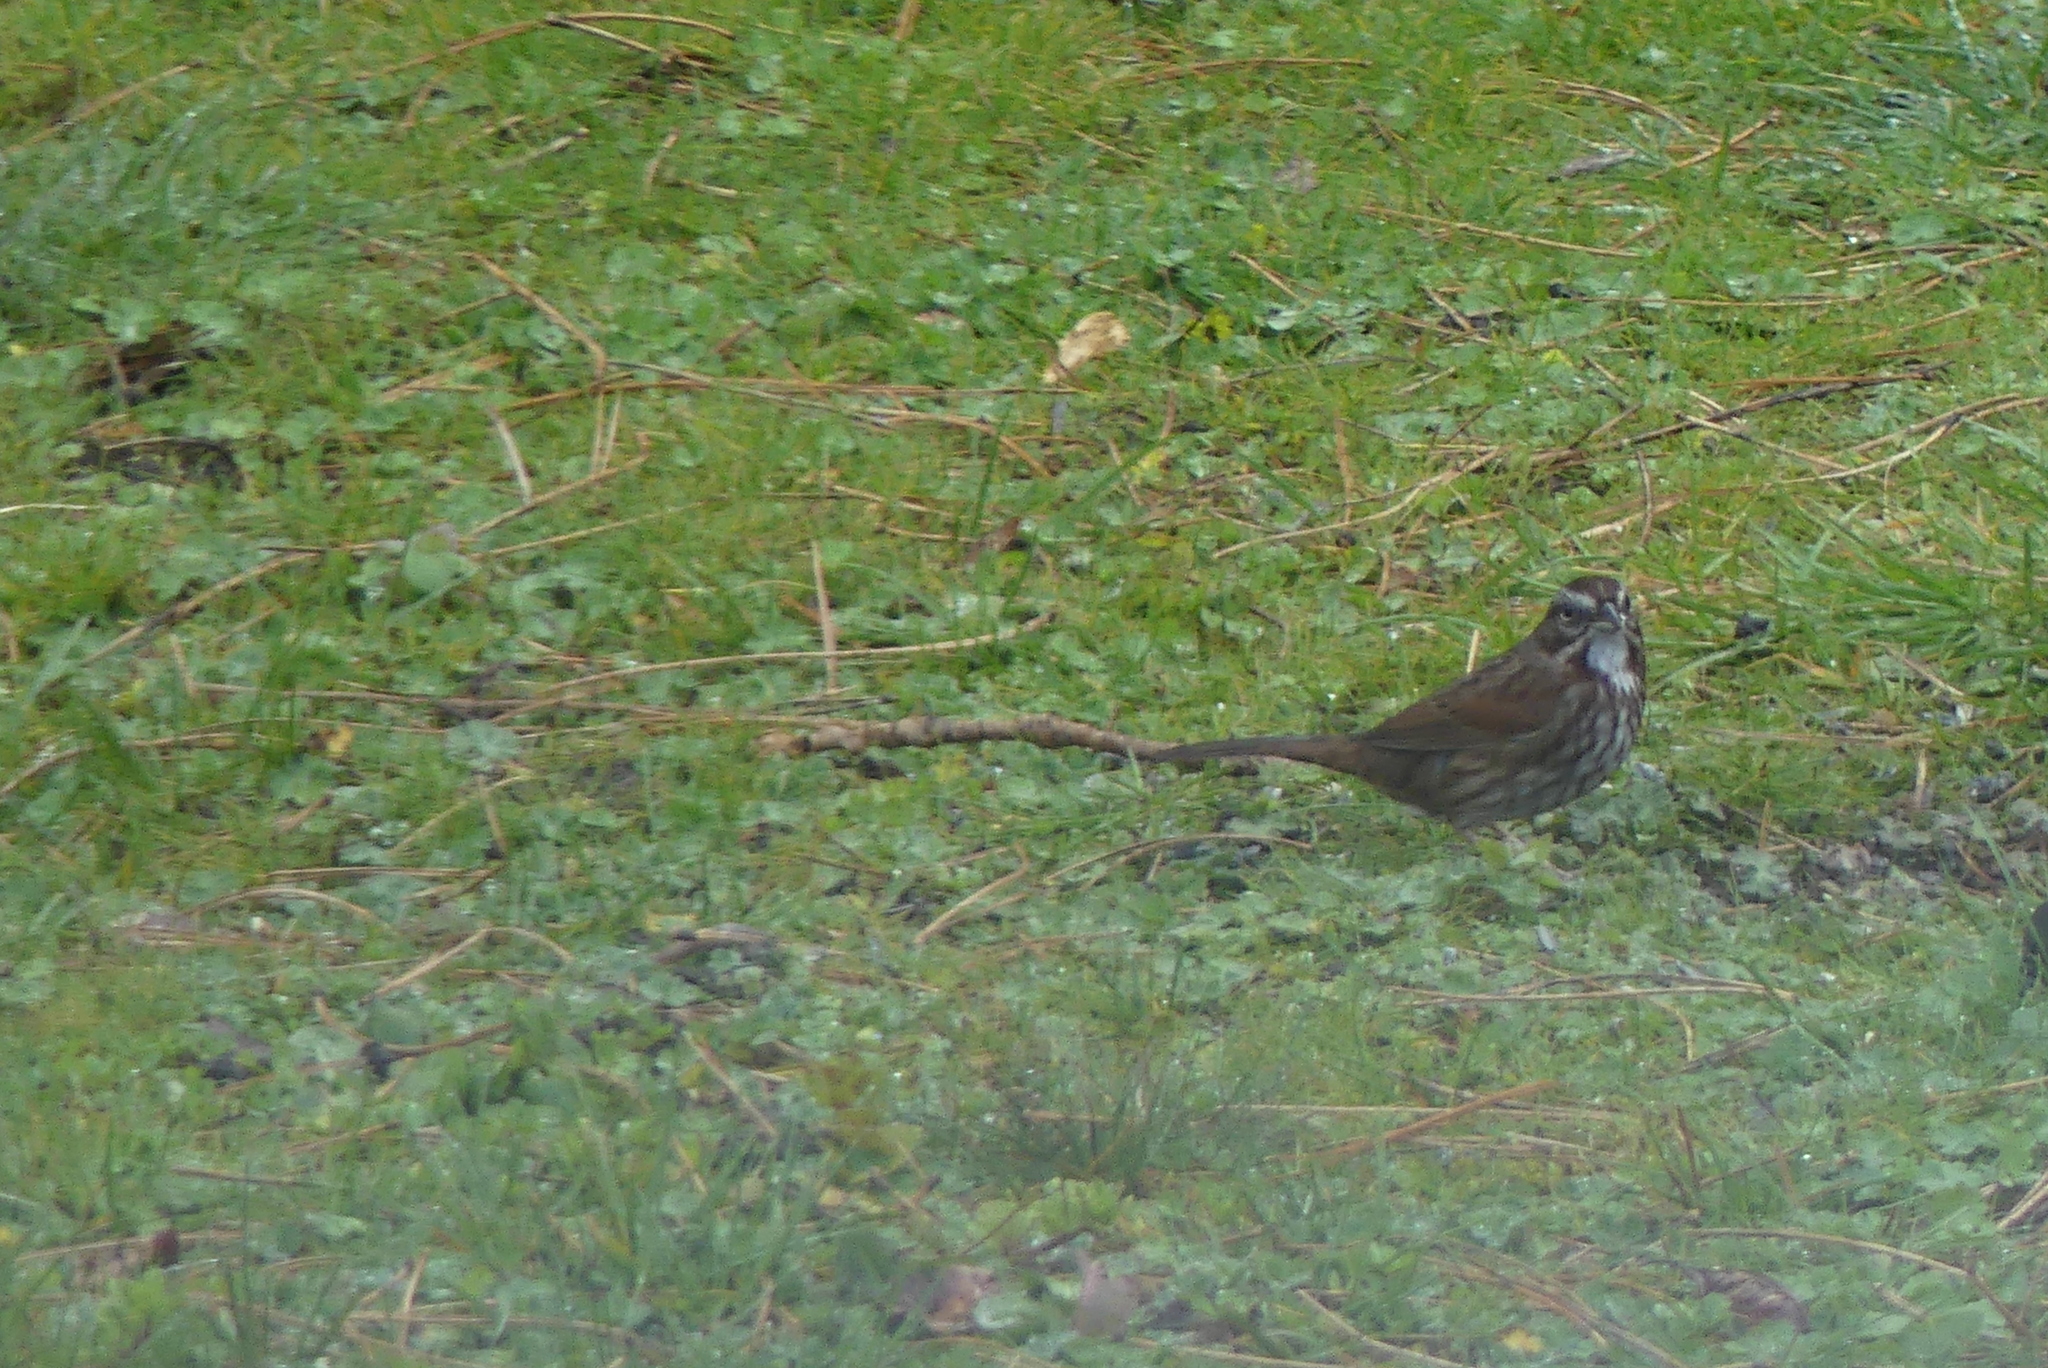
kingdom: Animalia
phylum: Chordata
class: Aves
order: Passeriformes
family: Passerellidae
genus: Melospiza
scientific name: Melospiza melodia
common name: Song sparrow
